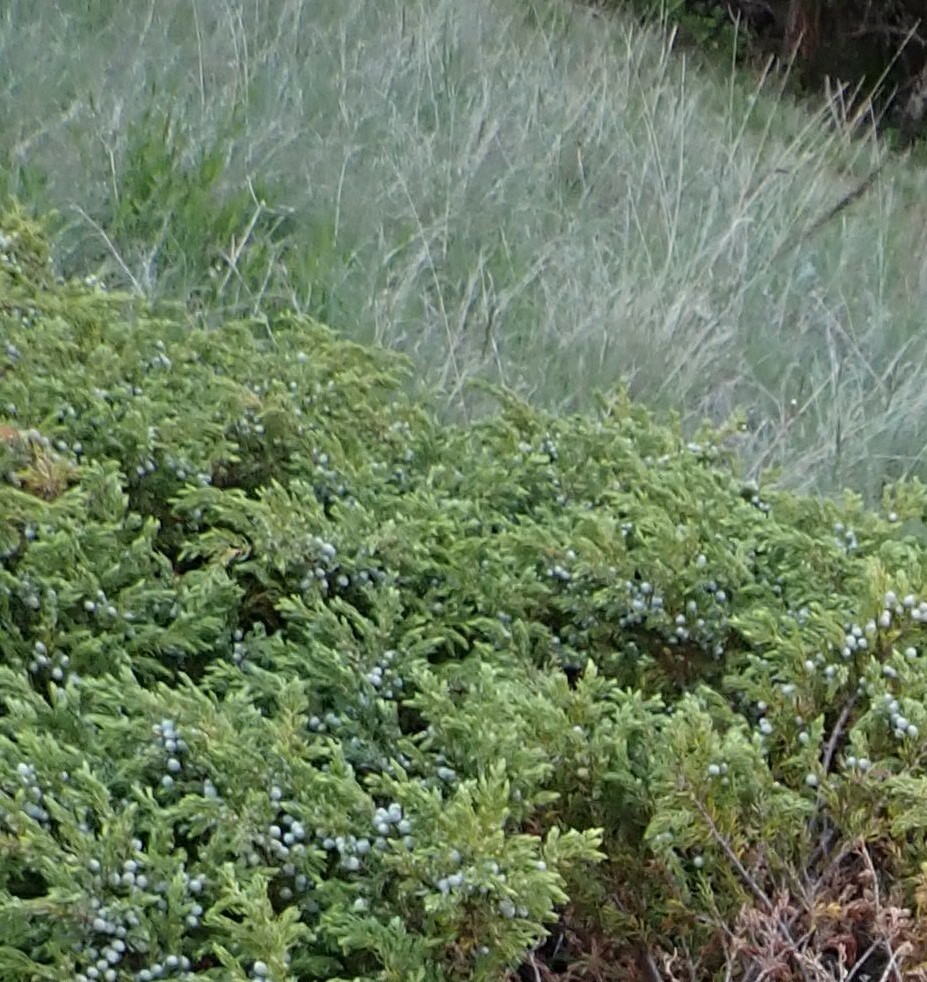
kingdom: Plantae
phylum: Tracheophyta
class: Pinopsida
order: Pinales
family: Cupressaceae
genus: Juniperus
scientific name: Juniperus communis
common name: Common juniper
